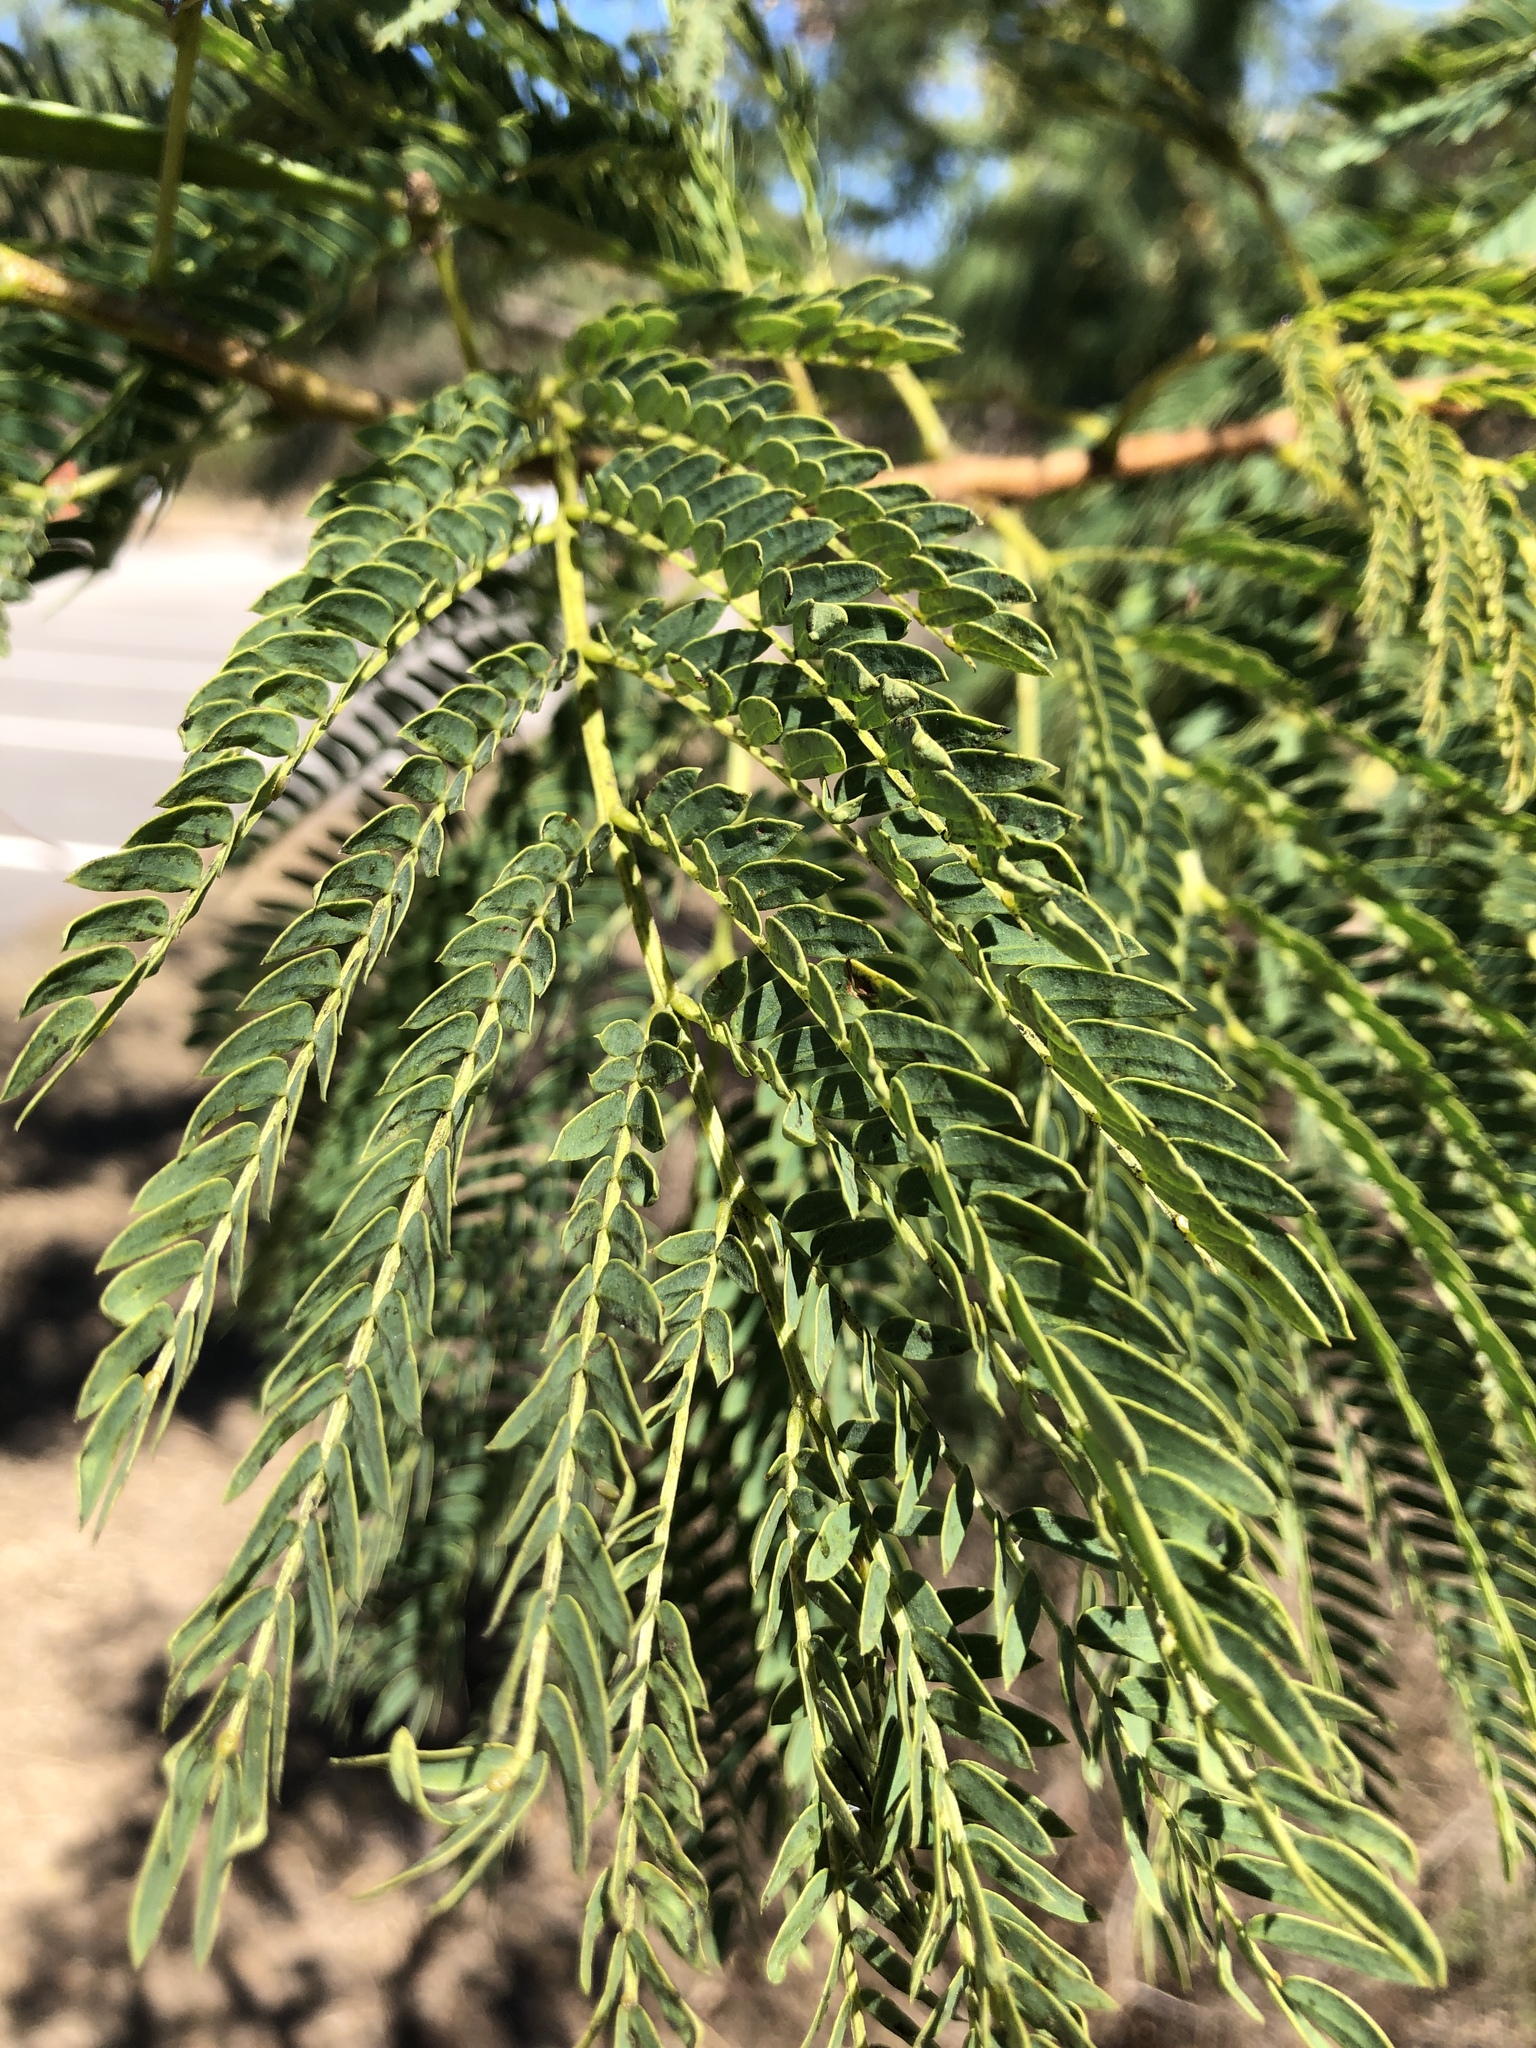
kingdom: Plantae
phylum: Tracheophyta
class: Magnoliopsida
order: Fabales
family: Fabaceae
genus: Leucaena
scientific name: Leucaena leucocephala
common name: White leadtree
